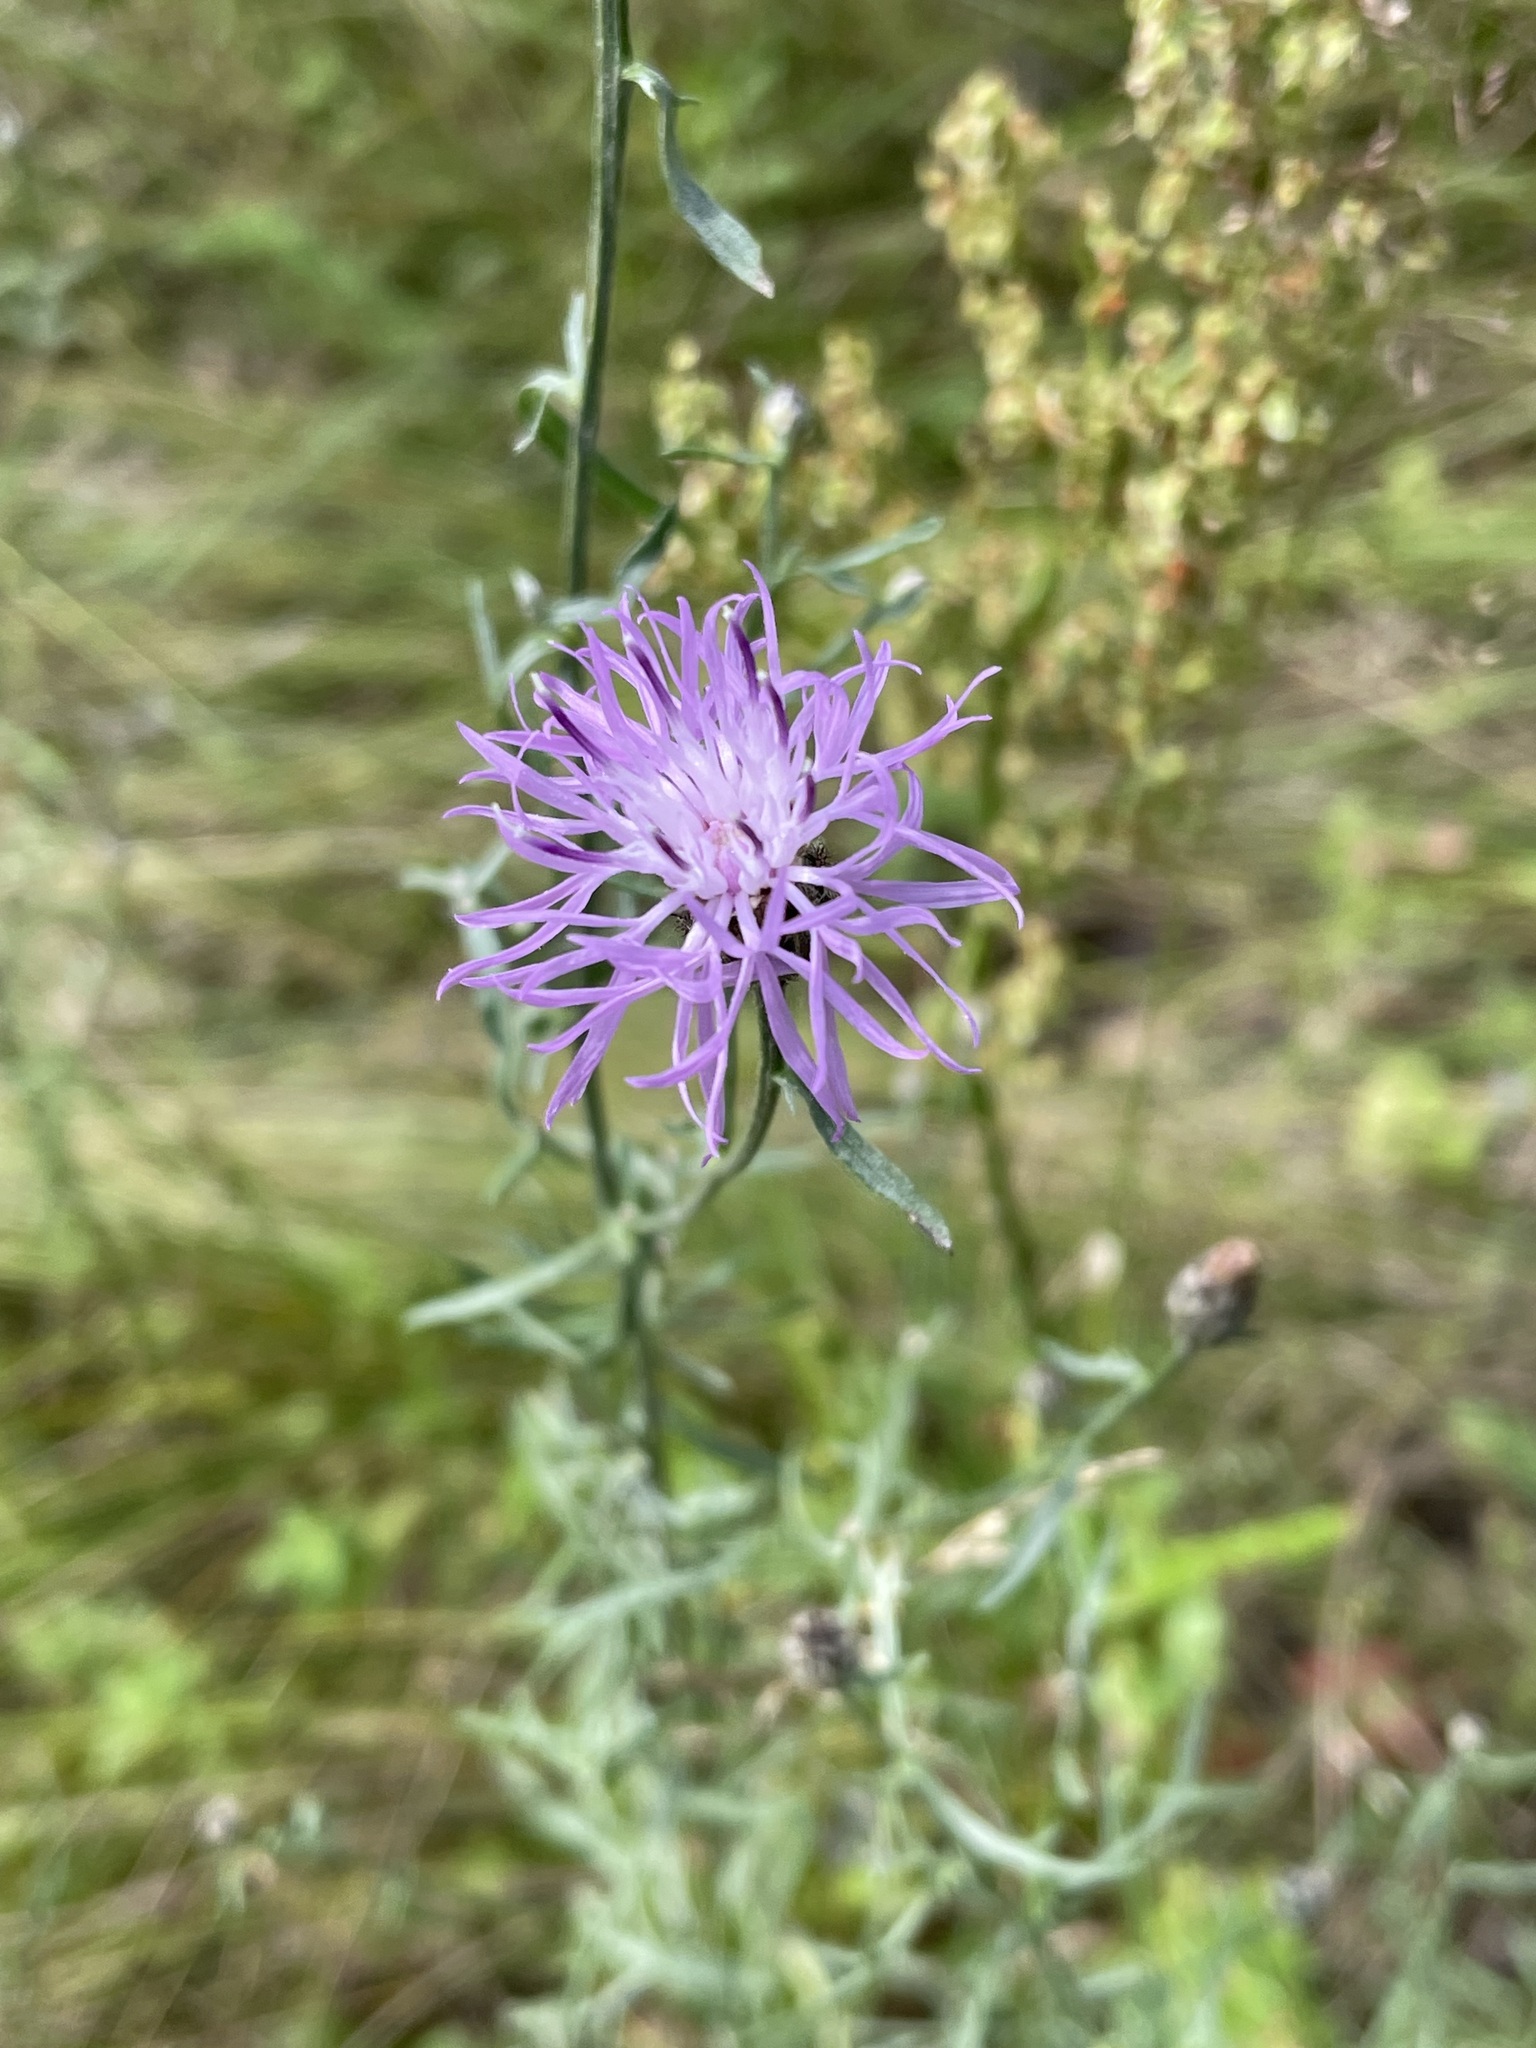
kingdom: Plantae
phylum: Tracheophyta
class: Magnoliopsida
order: Asterales
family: Asteraceae
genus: Centaurea
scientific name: Centaurea stoebe
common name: Spotted knapweed
